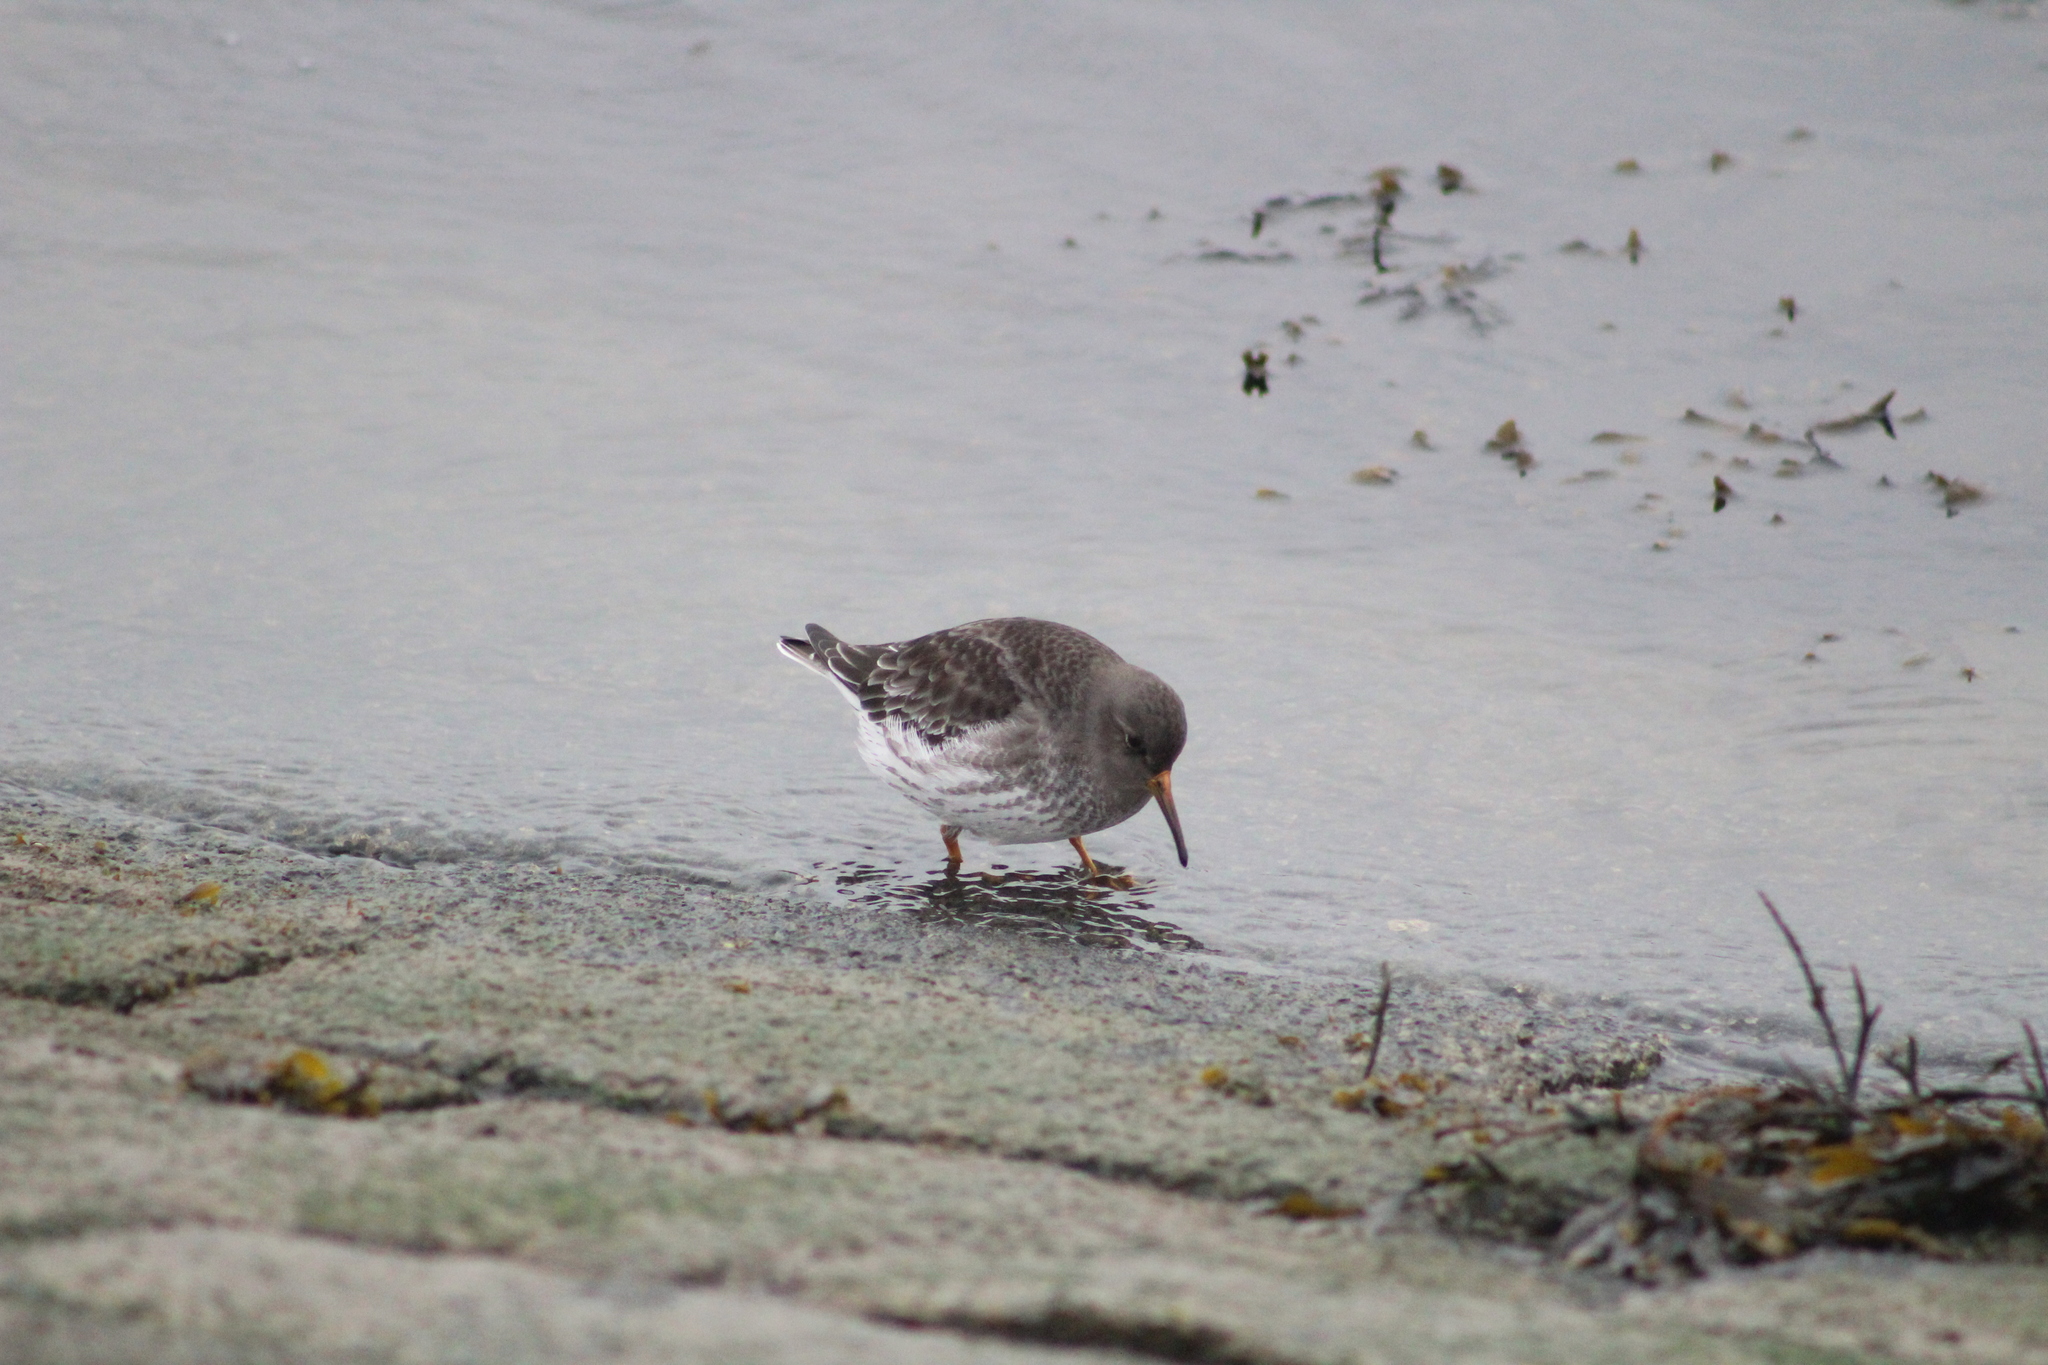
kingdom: Animalia
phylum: Chordata
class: Aves
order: Charadriiformes
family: Scolopacidae
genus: Calidris
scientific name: Calidris maritima
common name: Purple sandpiper
